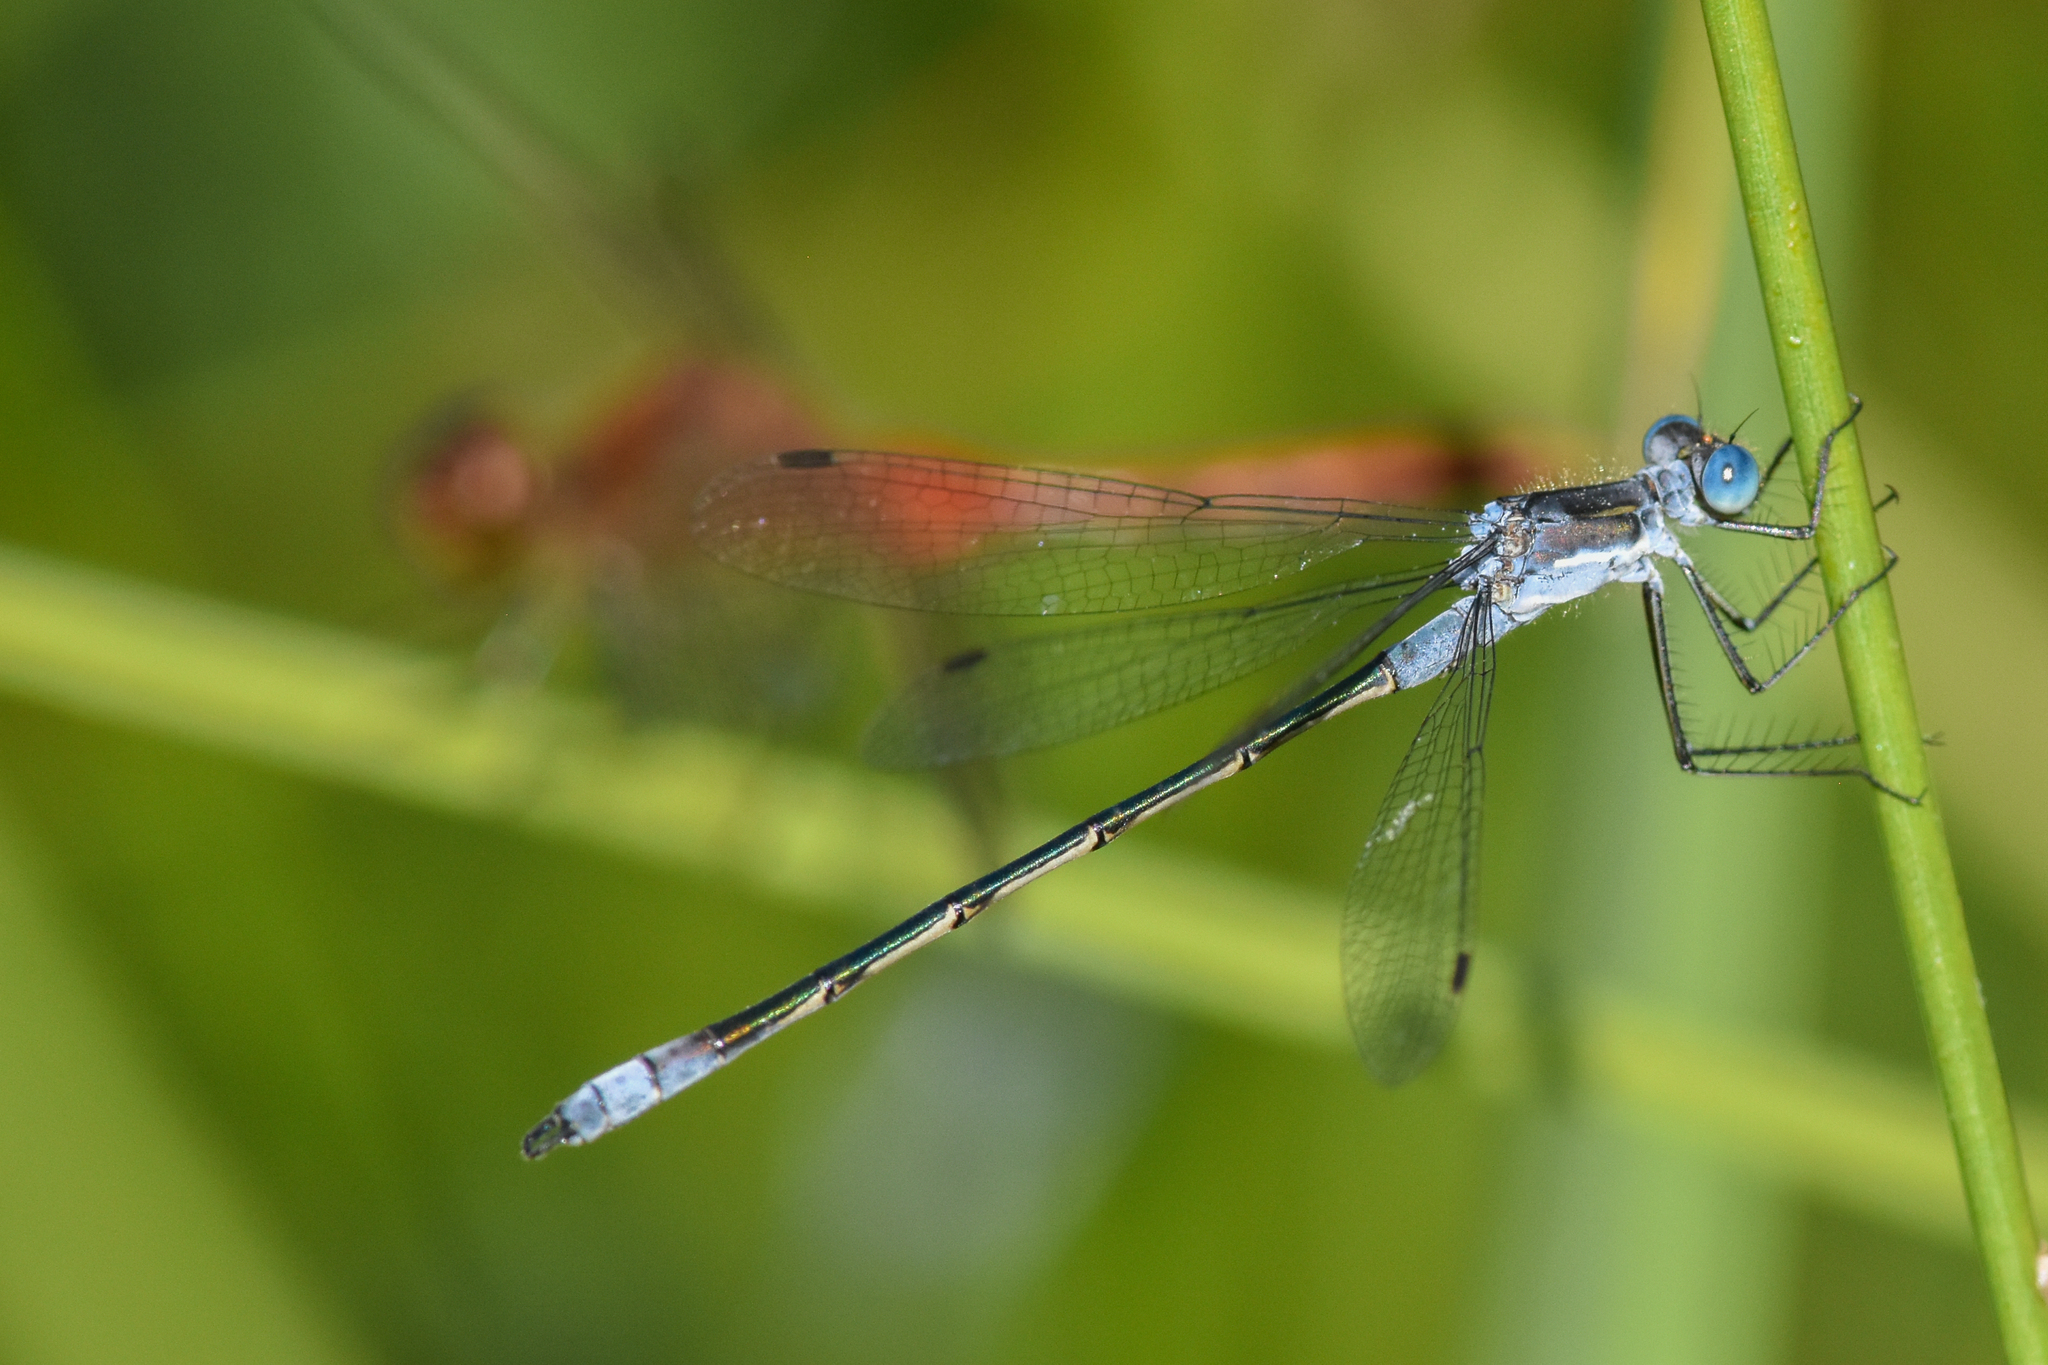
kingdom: Animalia
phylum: Arthropoda
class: Insecta
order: Odonata
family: Lestidae
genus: Lestes
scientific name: Lestes disjunctus
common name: Northern spreadwing
